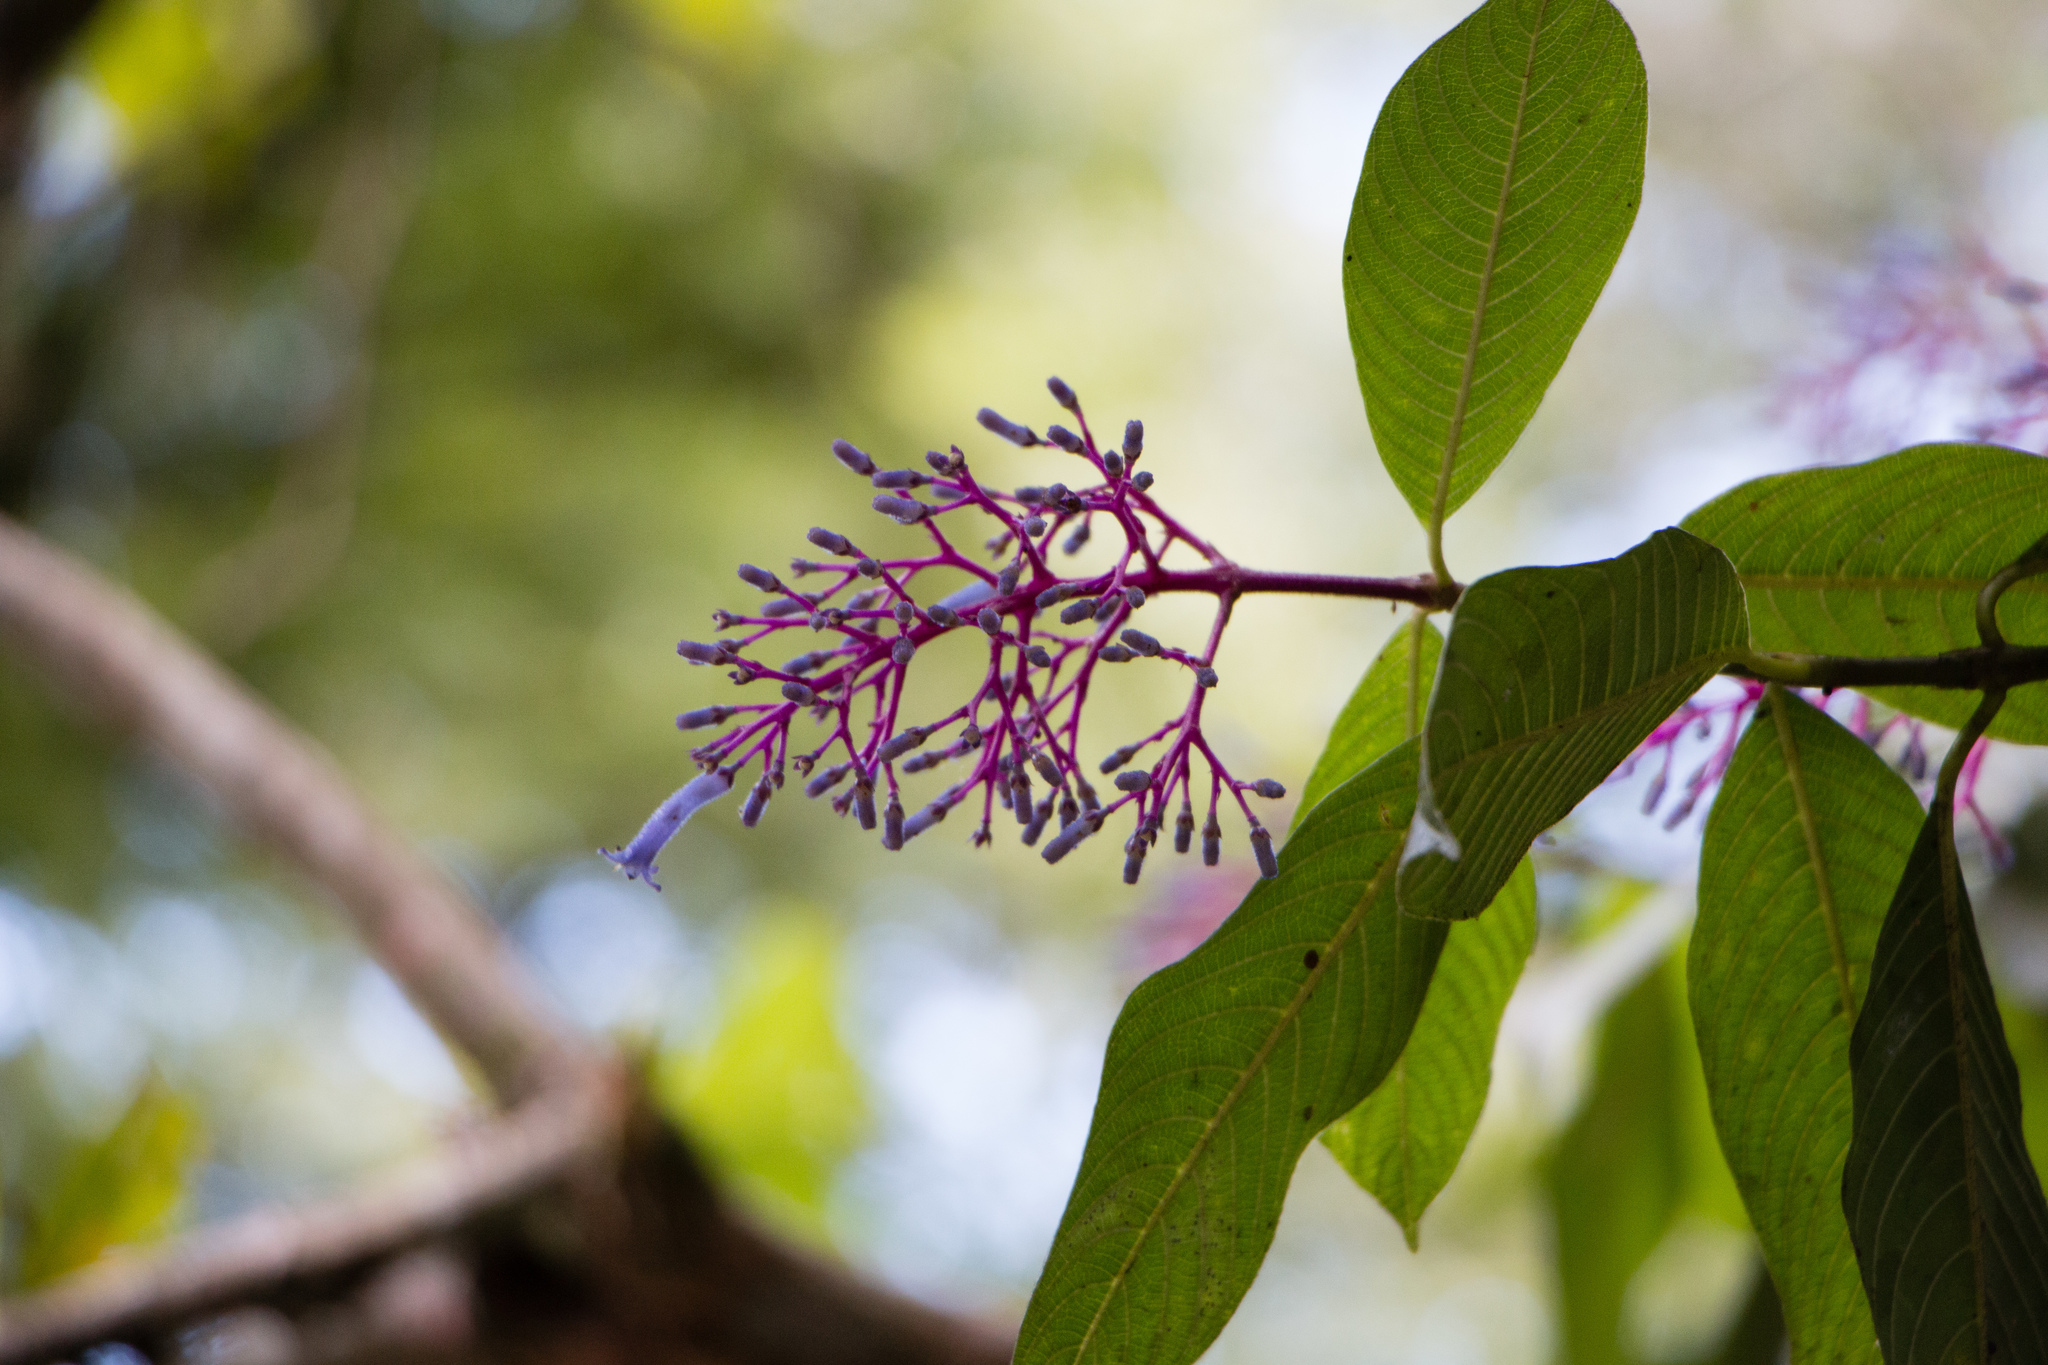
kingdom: Plantae
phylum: Tracheophyta
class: Magnoliopsida
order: Gentianales
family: Rubiaceae
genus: Palicourea
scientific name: Palicourea eriantha
